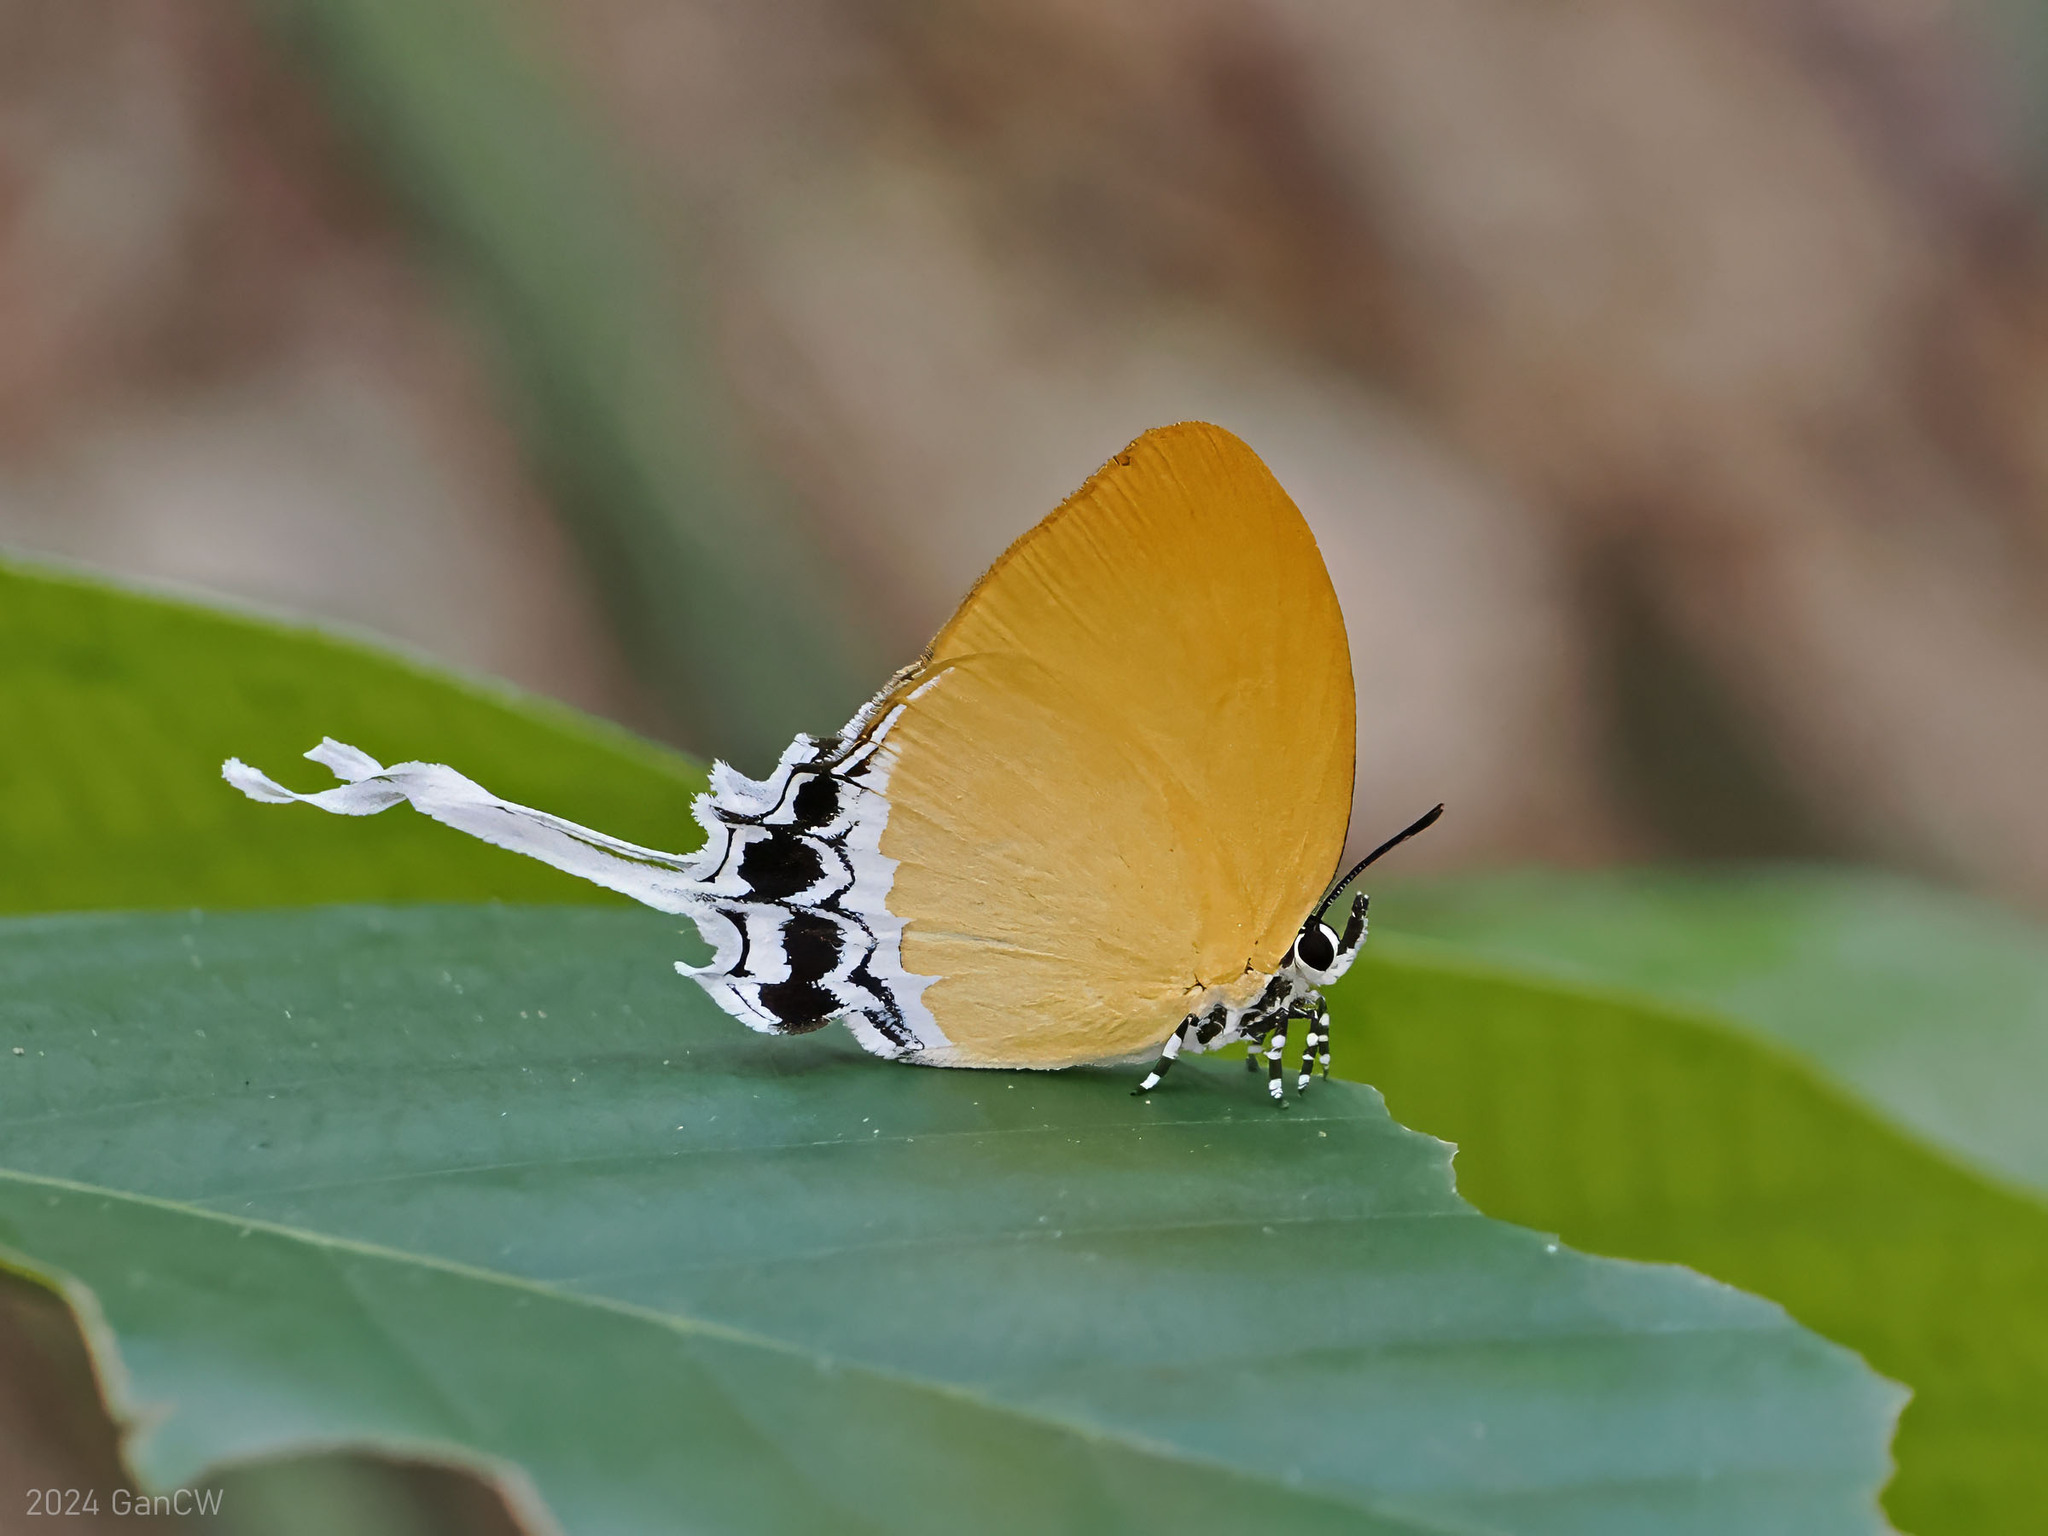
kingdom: Animalia
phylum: Arthropoda
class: Insecta
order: Lepidoptera
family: Lycaenidae
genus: Eooxylides
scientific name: Eooxylides
